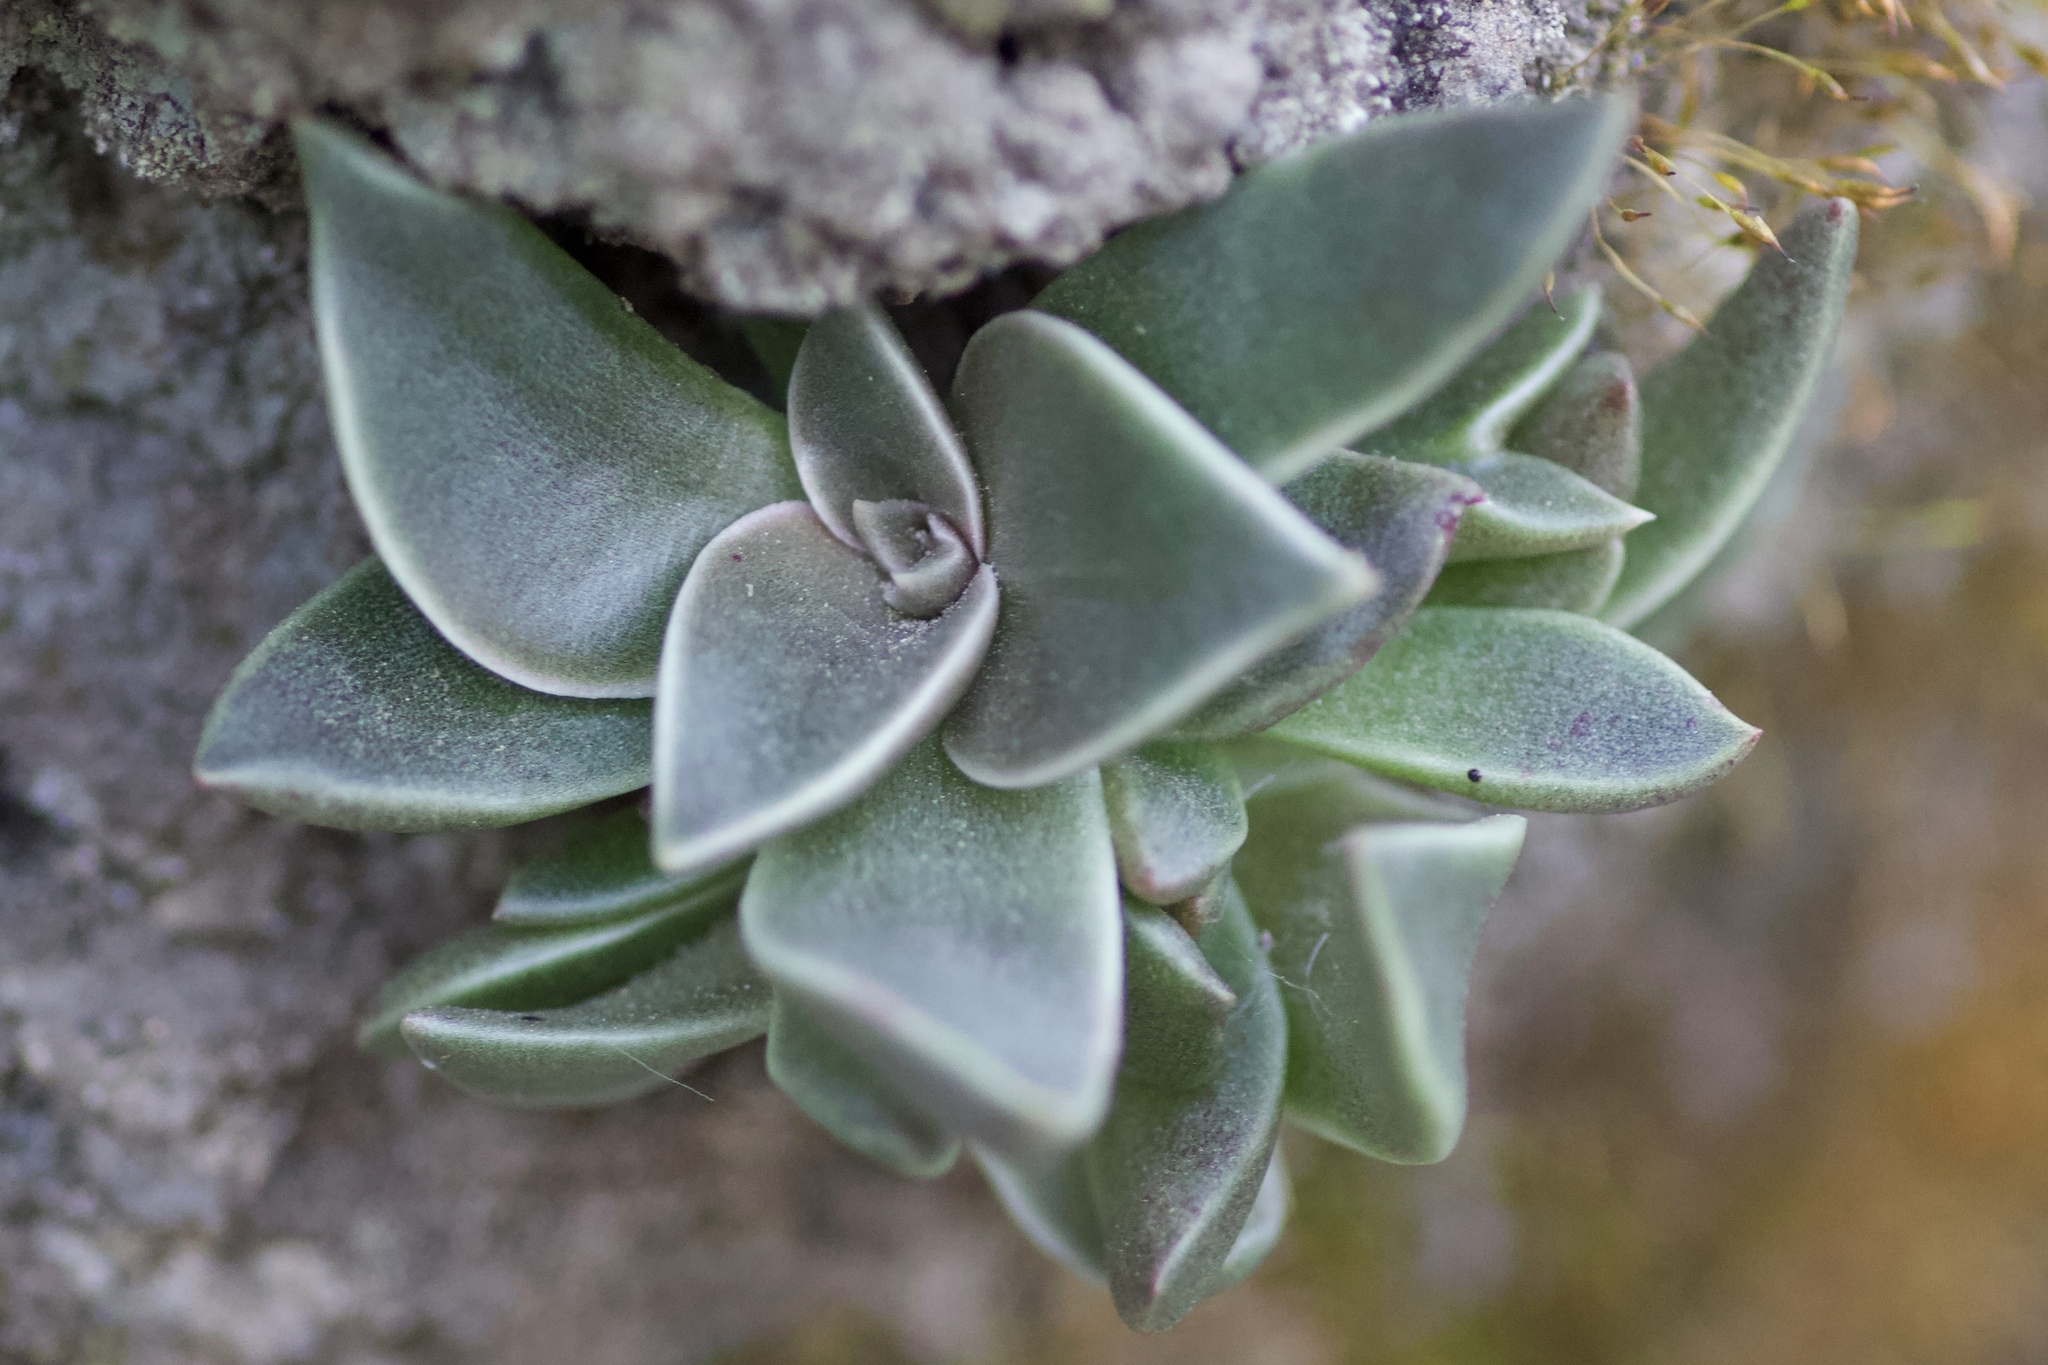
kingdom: Plantae
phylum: Tracheophyta
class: Magnoliopsida
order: Saxifragales
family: Crassulaceae
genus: Dudleya
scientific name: Dudleya cymosa
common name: Canyon dudleya
